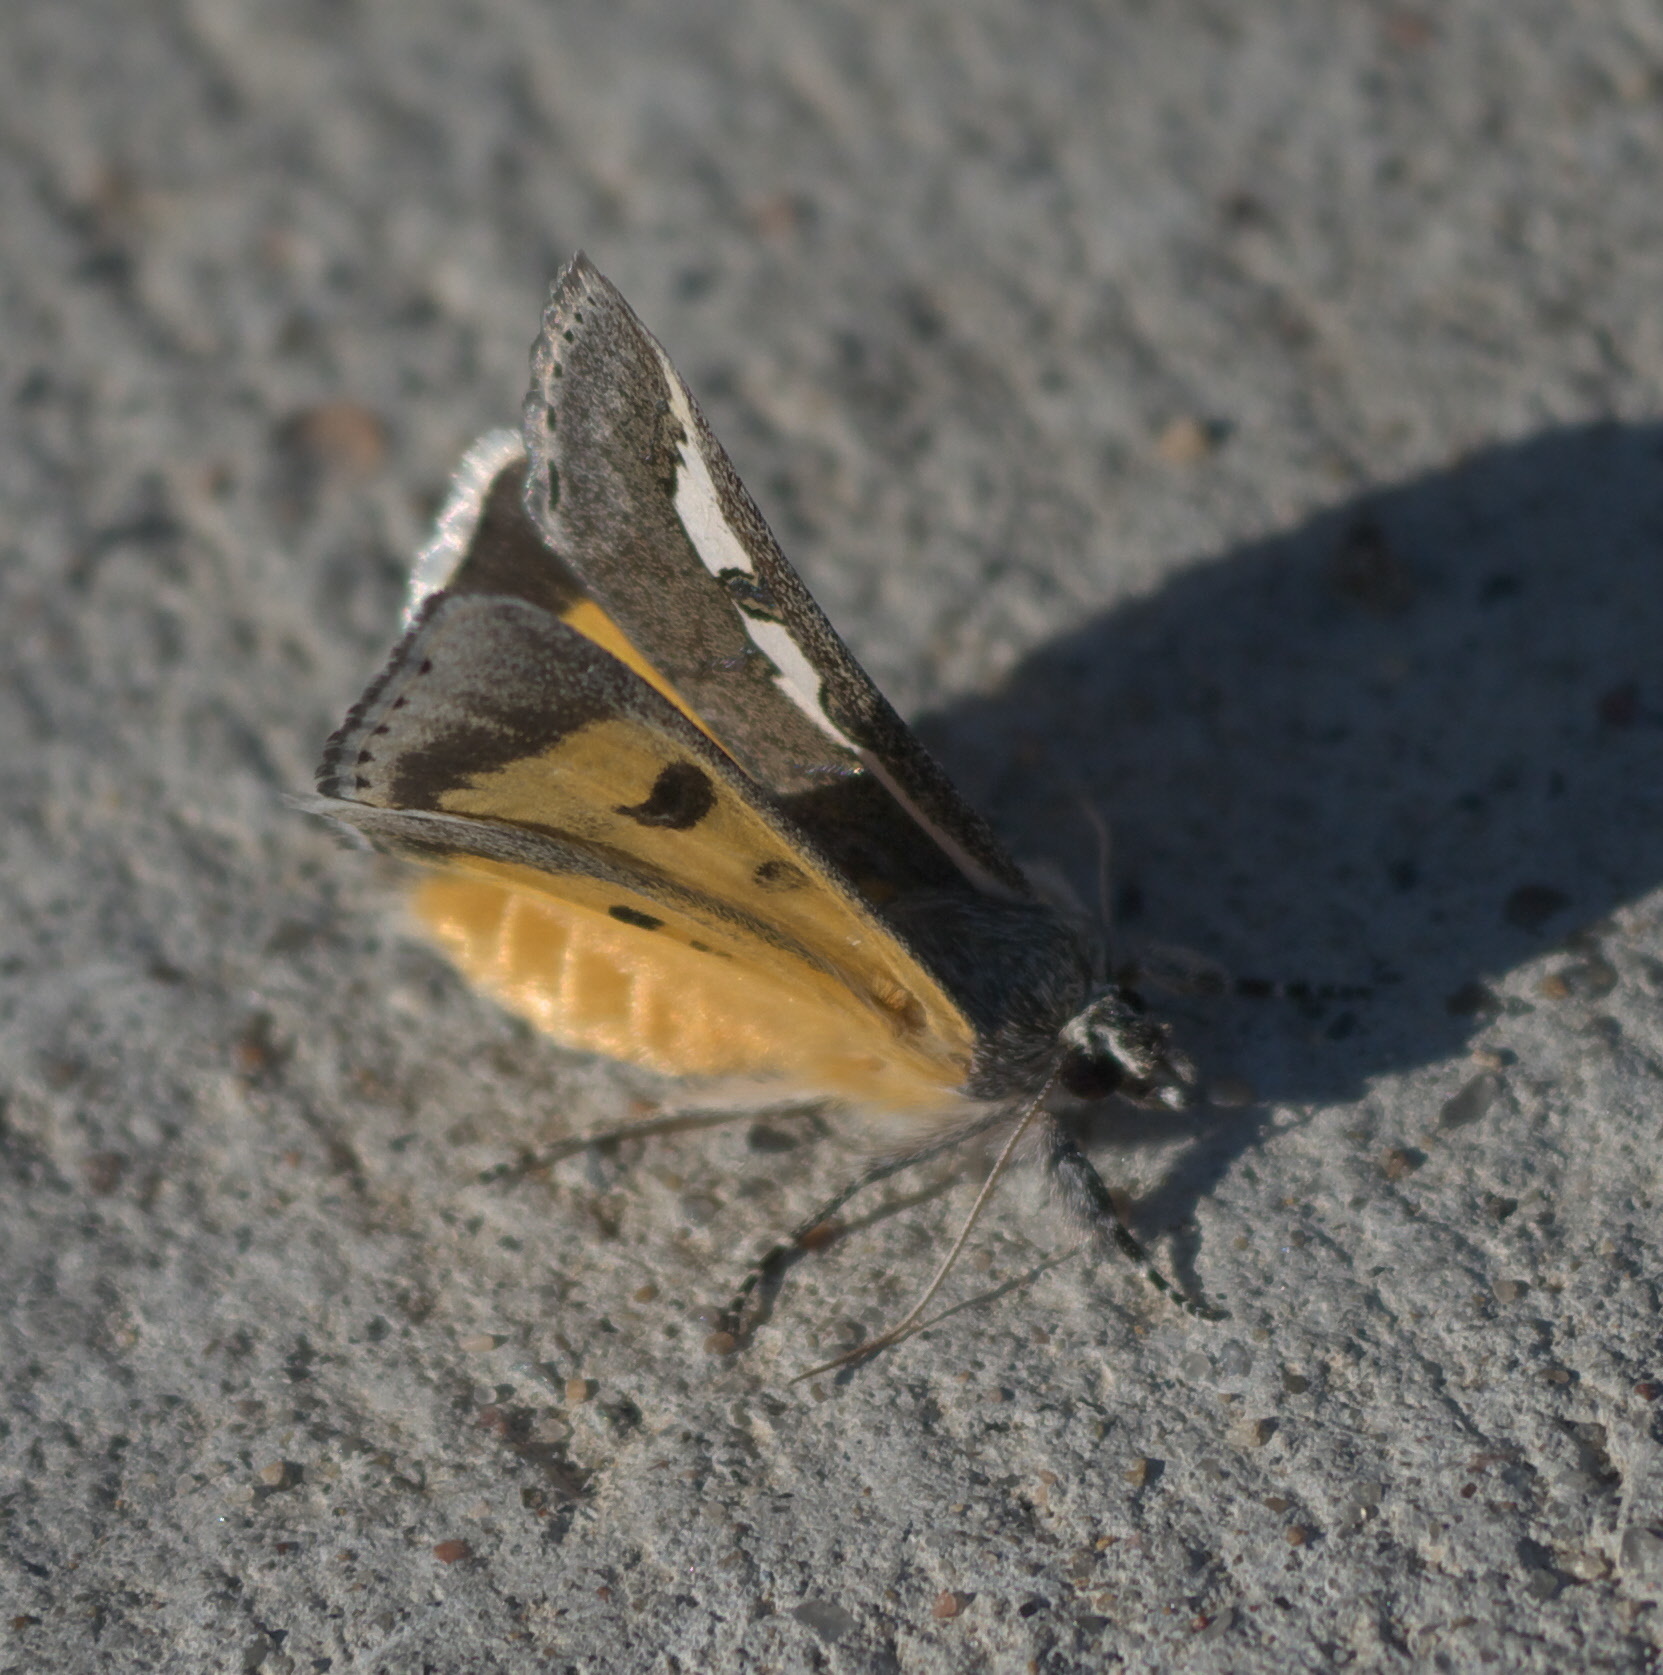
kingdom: Animalia
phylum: Arthropoda
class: Insecta
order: Lepidoptera
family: Noctuidae
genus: Euscirrhopterus
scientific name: Euscirrhopterus gloveri
